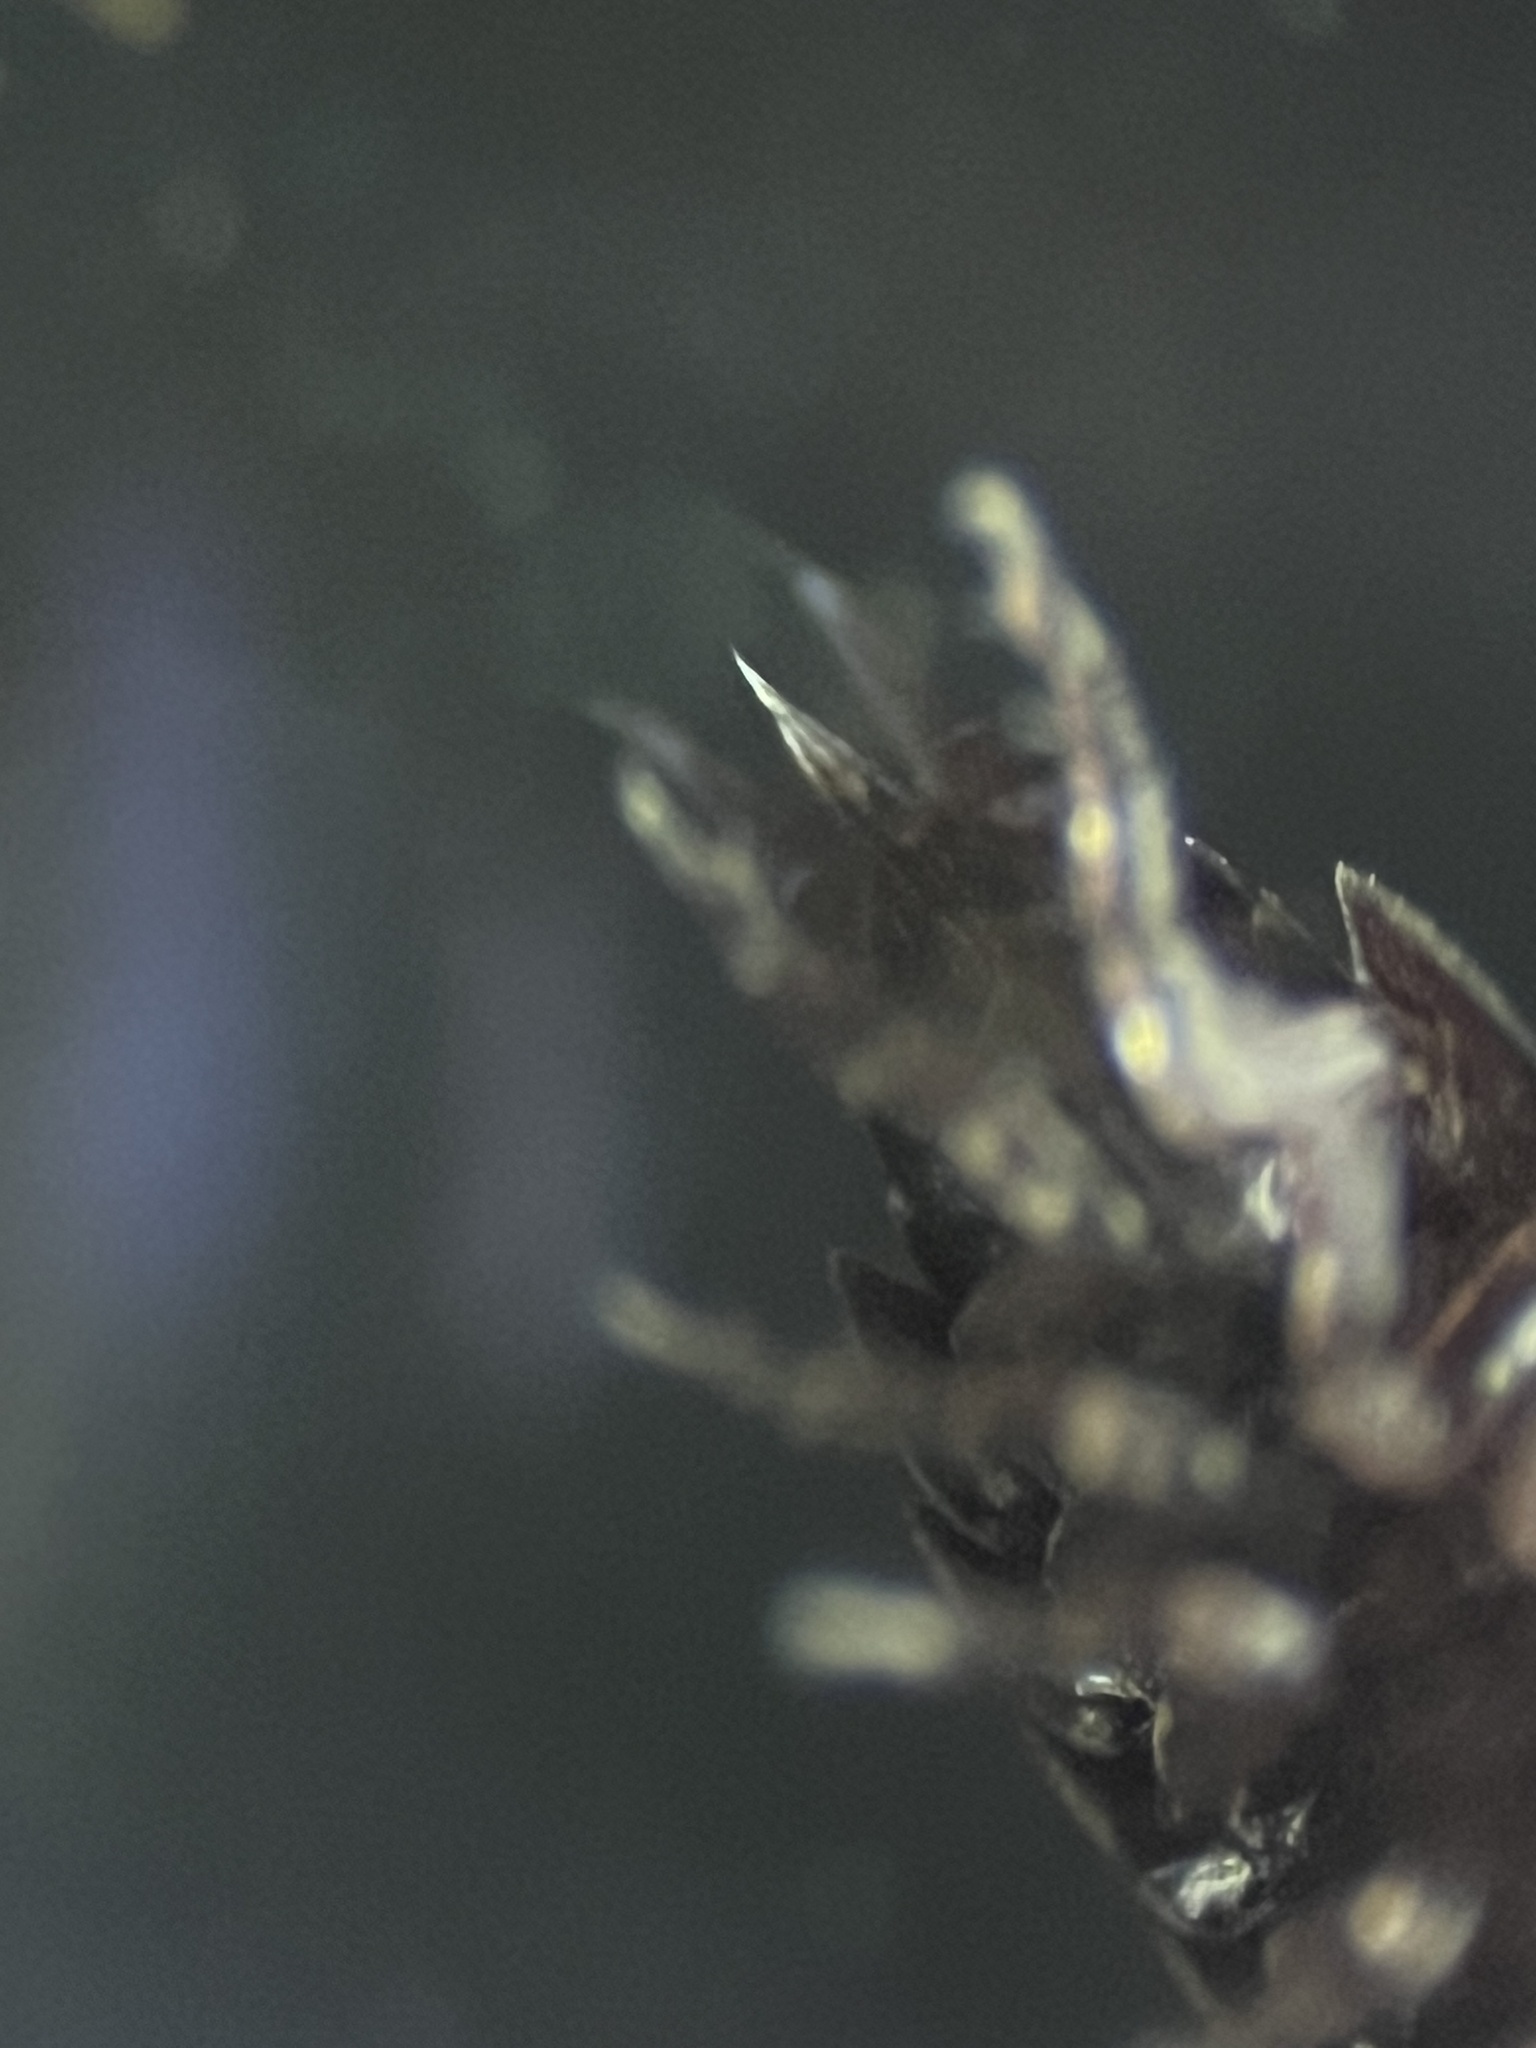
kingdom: Animalia
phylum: Arthropoda
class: Malacostraca
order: Isopoda
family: Styloniscidae
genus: Styloniscus
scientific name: Styloniscus
